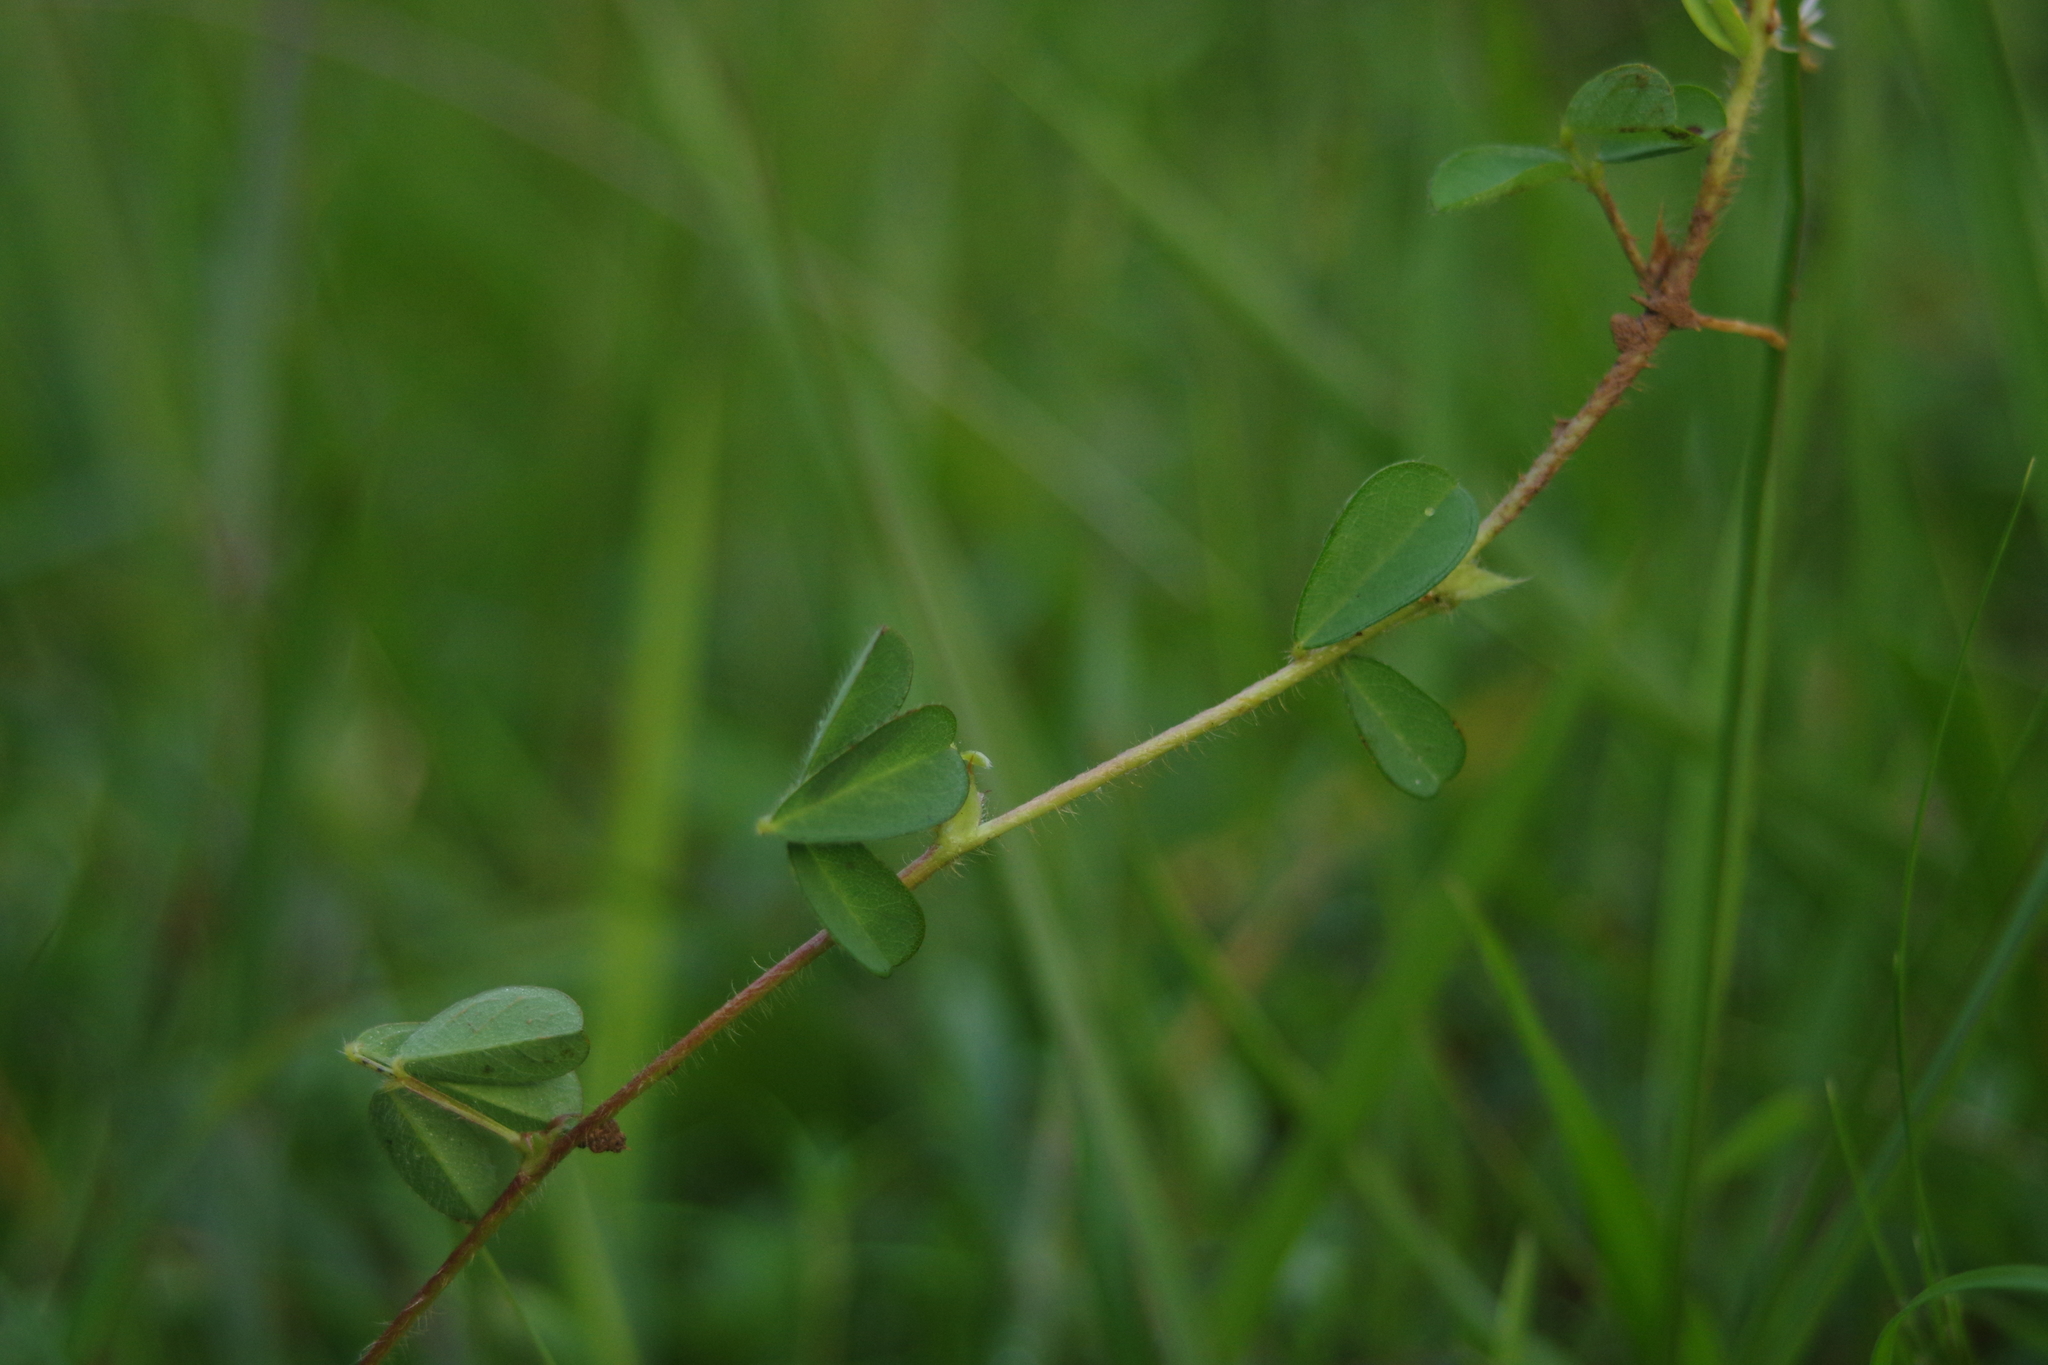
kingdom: Plantae
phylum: Tracheophyta
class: Magnoliopsida
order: Fabales
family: Fabaceae
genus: Grona
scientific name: Grona heterophylla
